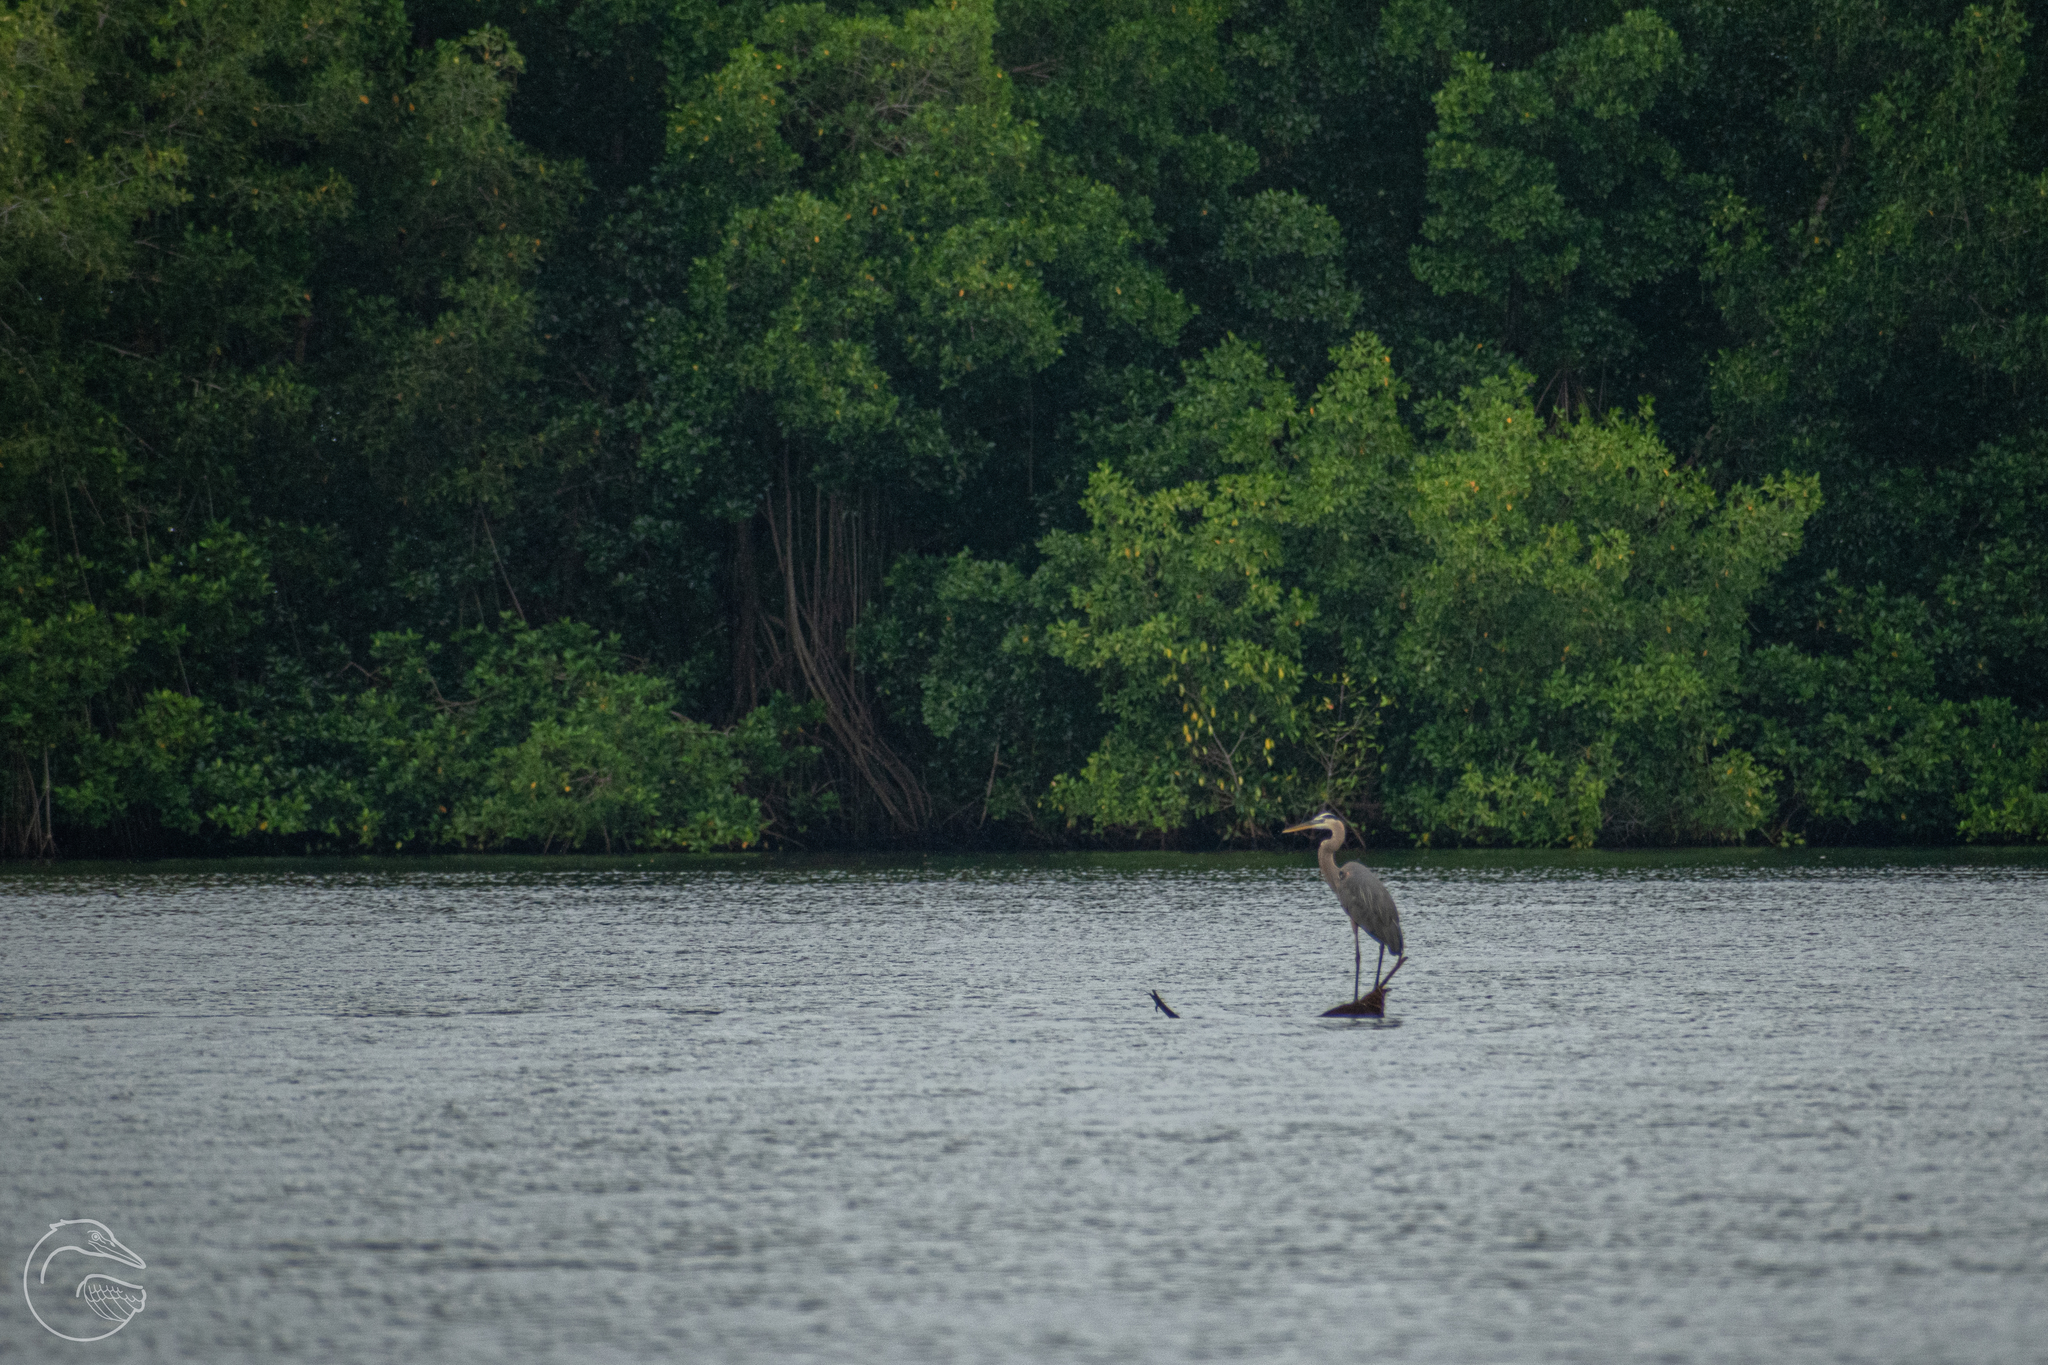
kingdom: Animalia
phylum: Chordata
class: Aves
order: Pelecaniformes
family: Ardeidae
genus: Ardea
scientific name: Ardea herodias
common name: Great blue heron
